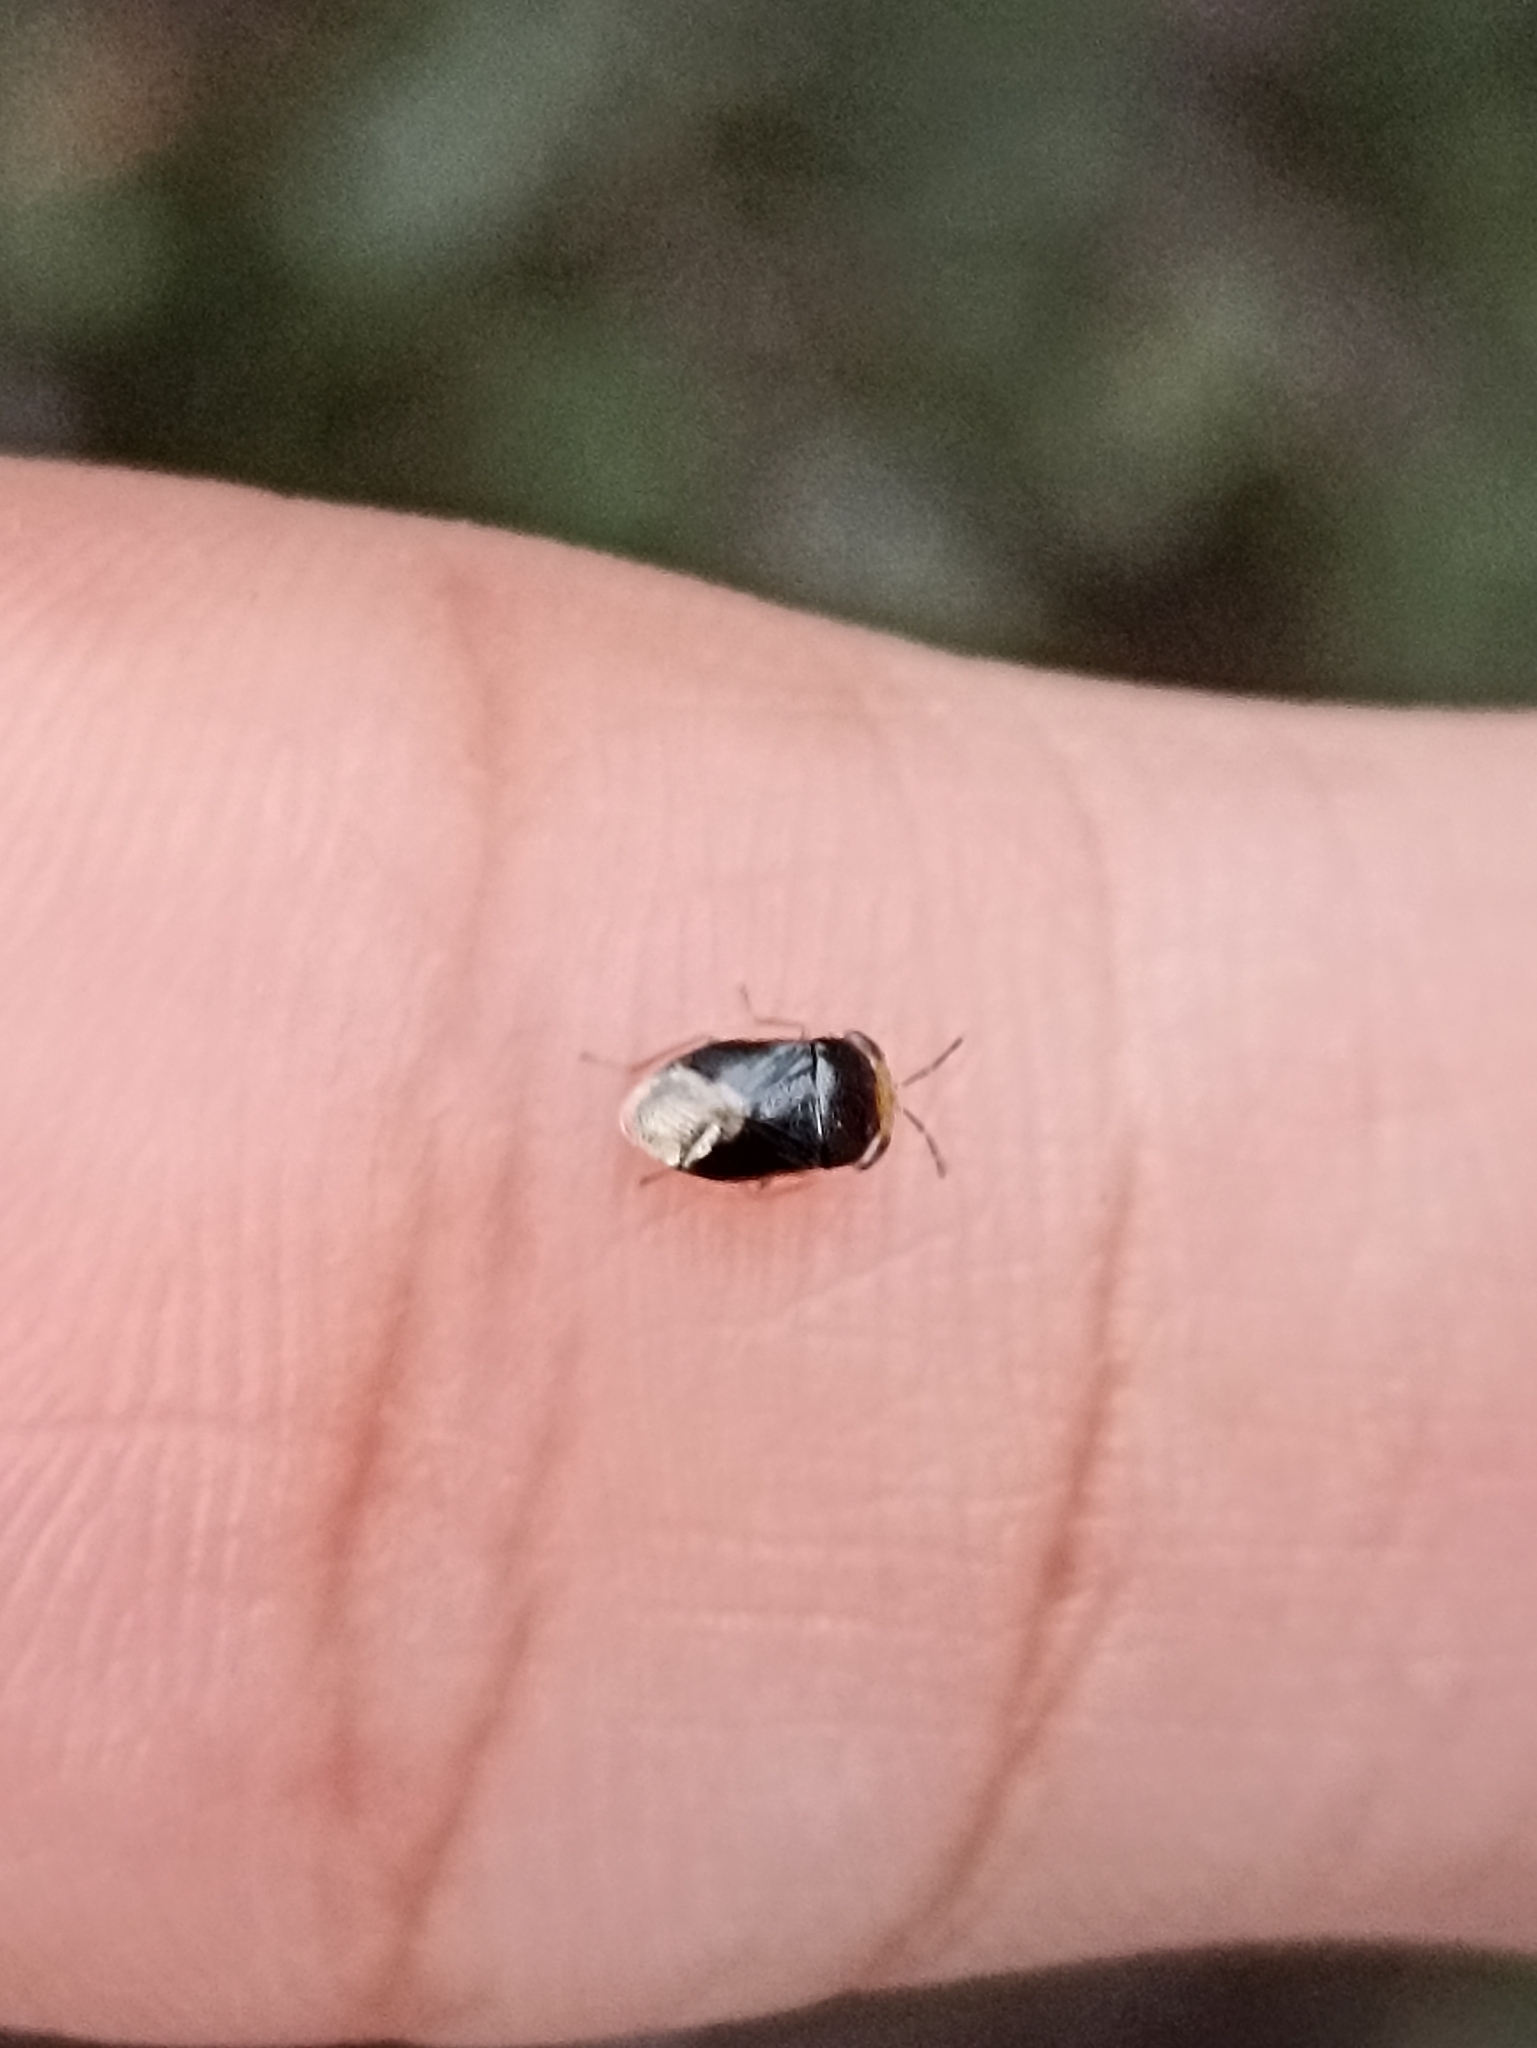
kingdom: Animalia
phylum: Arthropoda
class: Insecta
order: Hemiptera
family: Geocoridae
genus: Geocoris
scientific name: Geocoris erythrocephala
